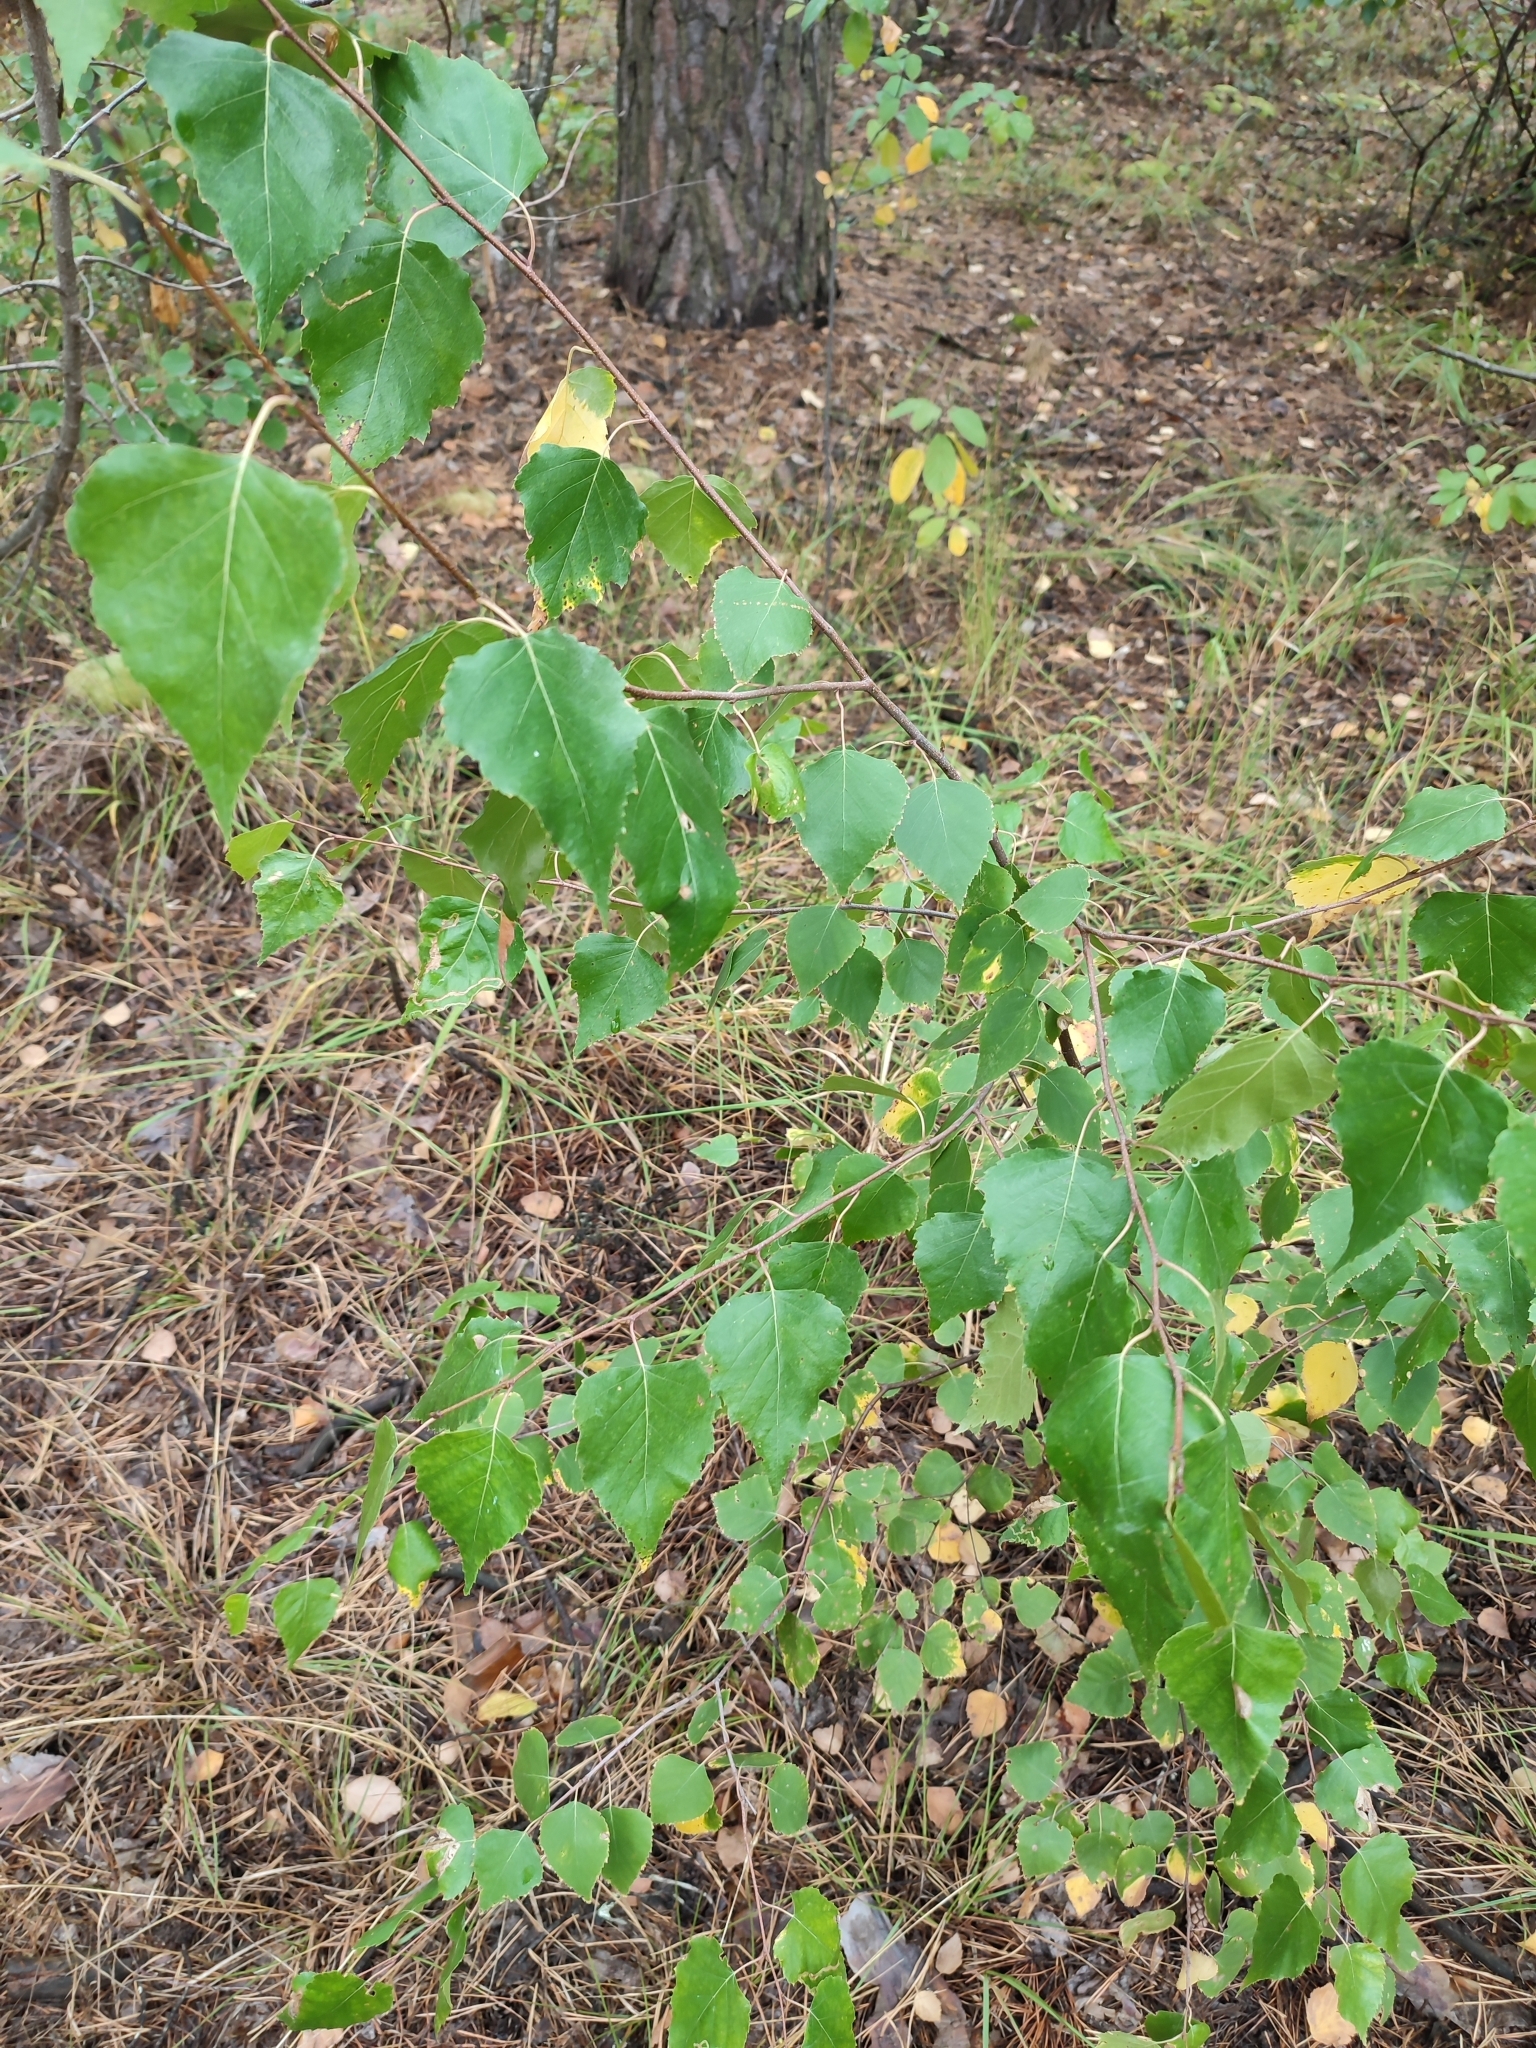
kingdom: Plantae
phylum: Tracheophyta
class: Magnoliopsida
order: Fagales
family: Betulaceae
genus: Betula
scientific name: Betula pendula
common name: Silver birch
